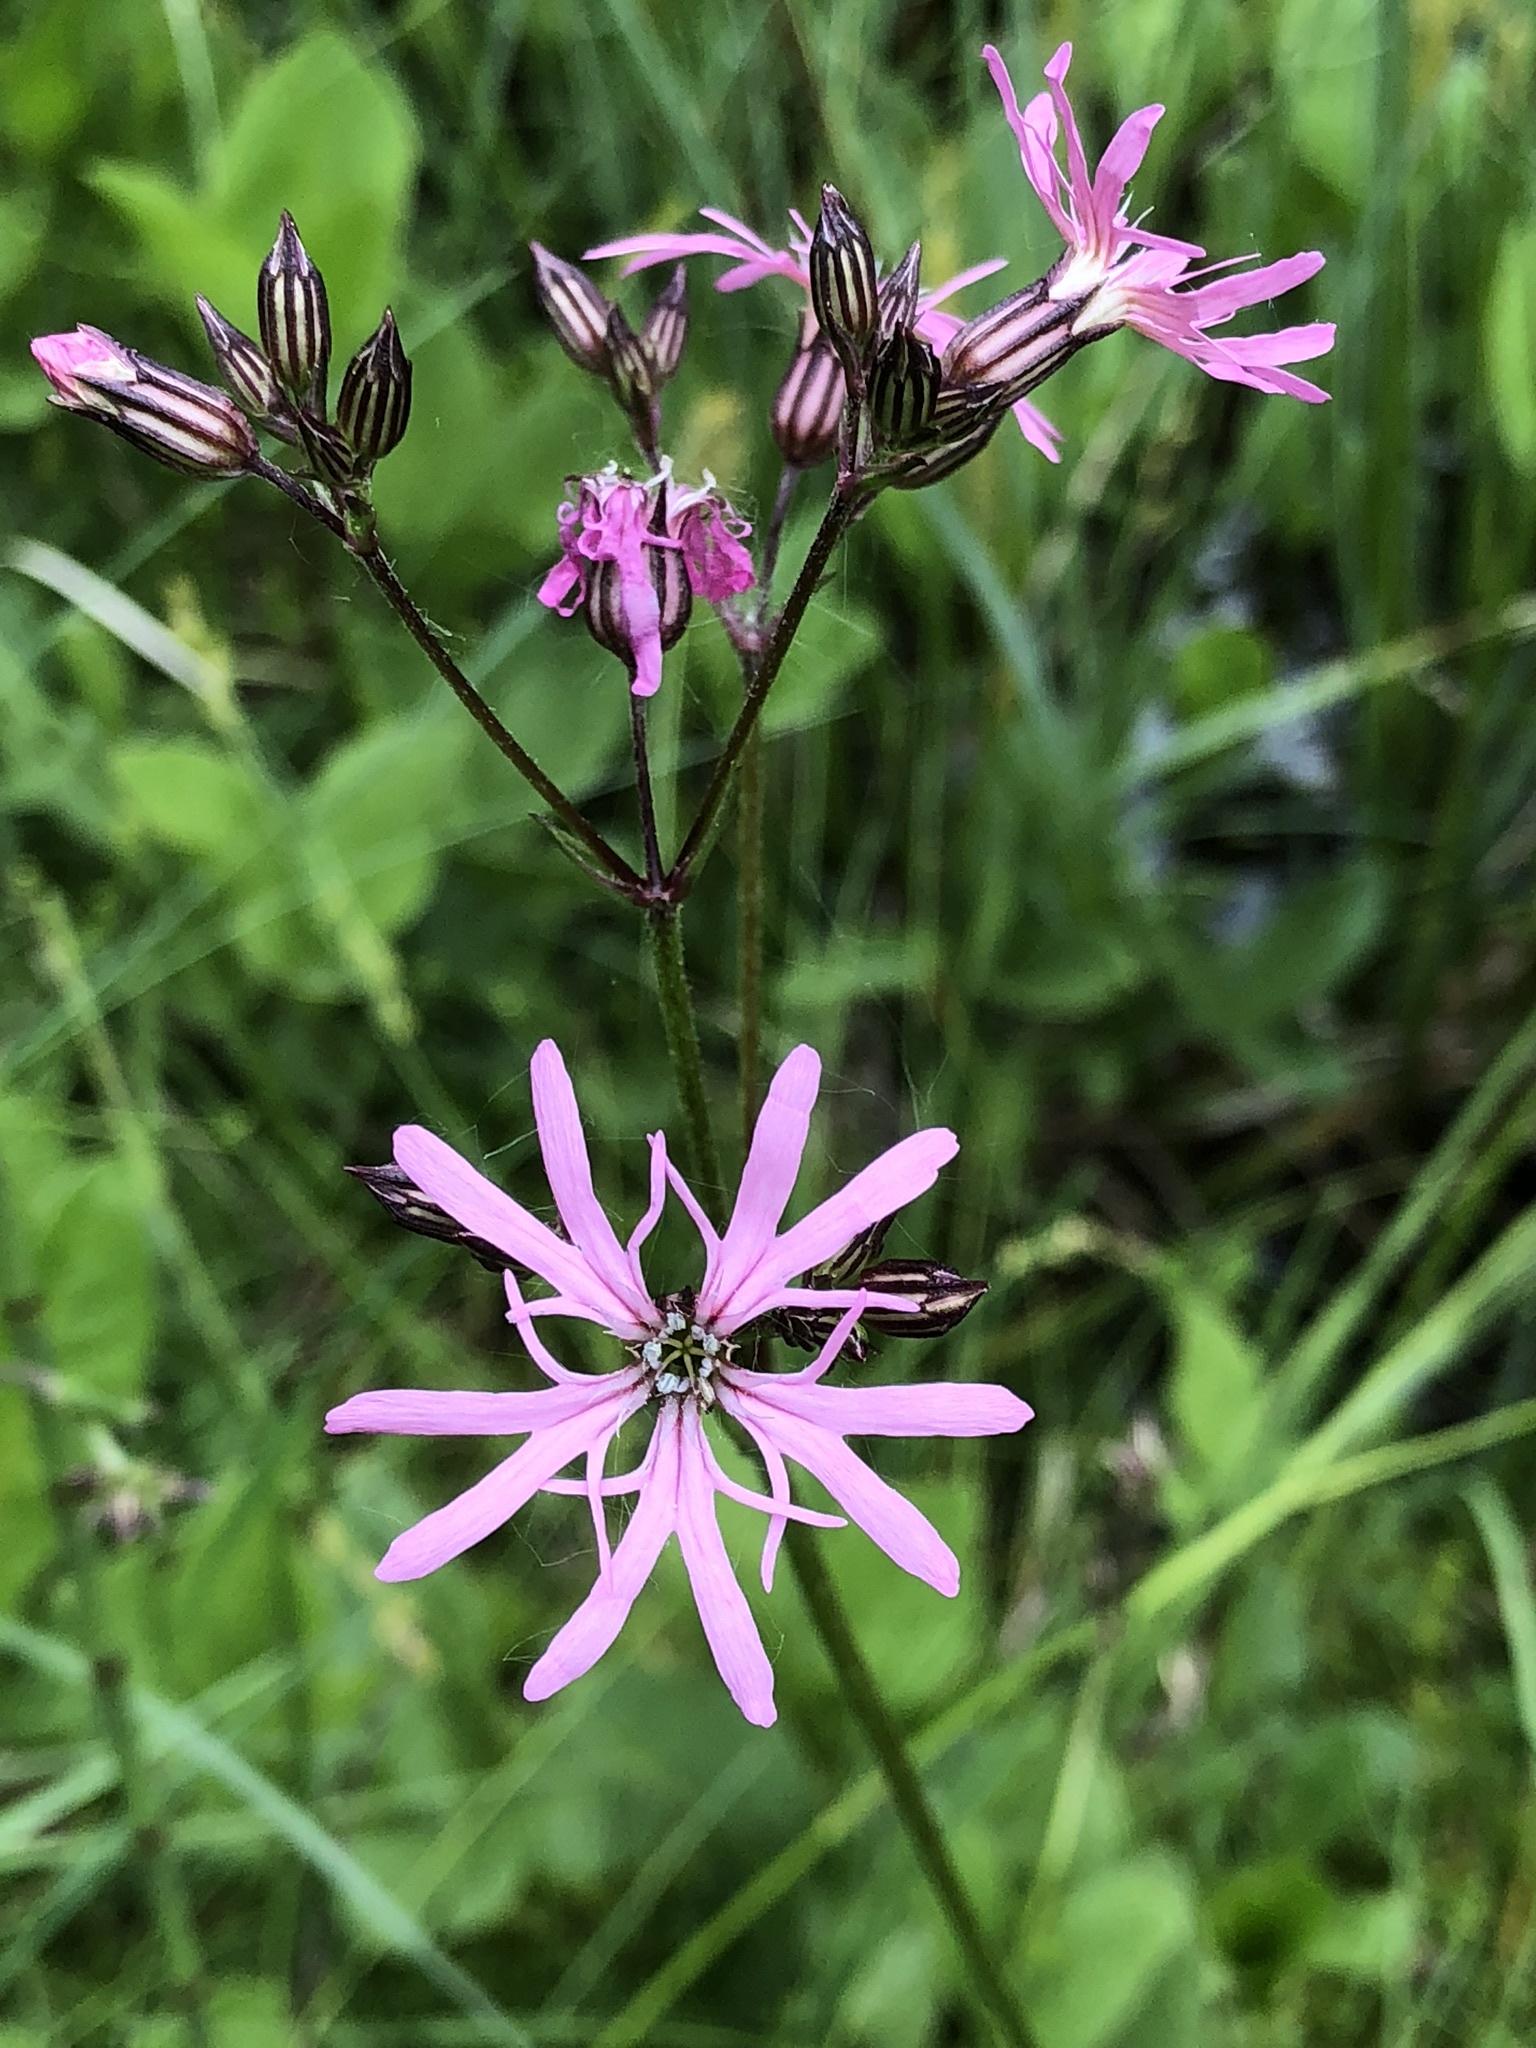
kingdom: Plantae
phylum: Tracheophyta
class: Magnoliopsida
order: Caryophyllales
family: Caryophyllaceae
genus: Silene
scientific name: Silene flos-cuculi
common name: Ragged-robin
